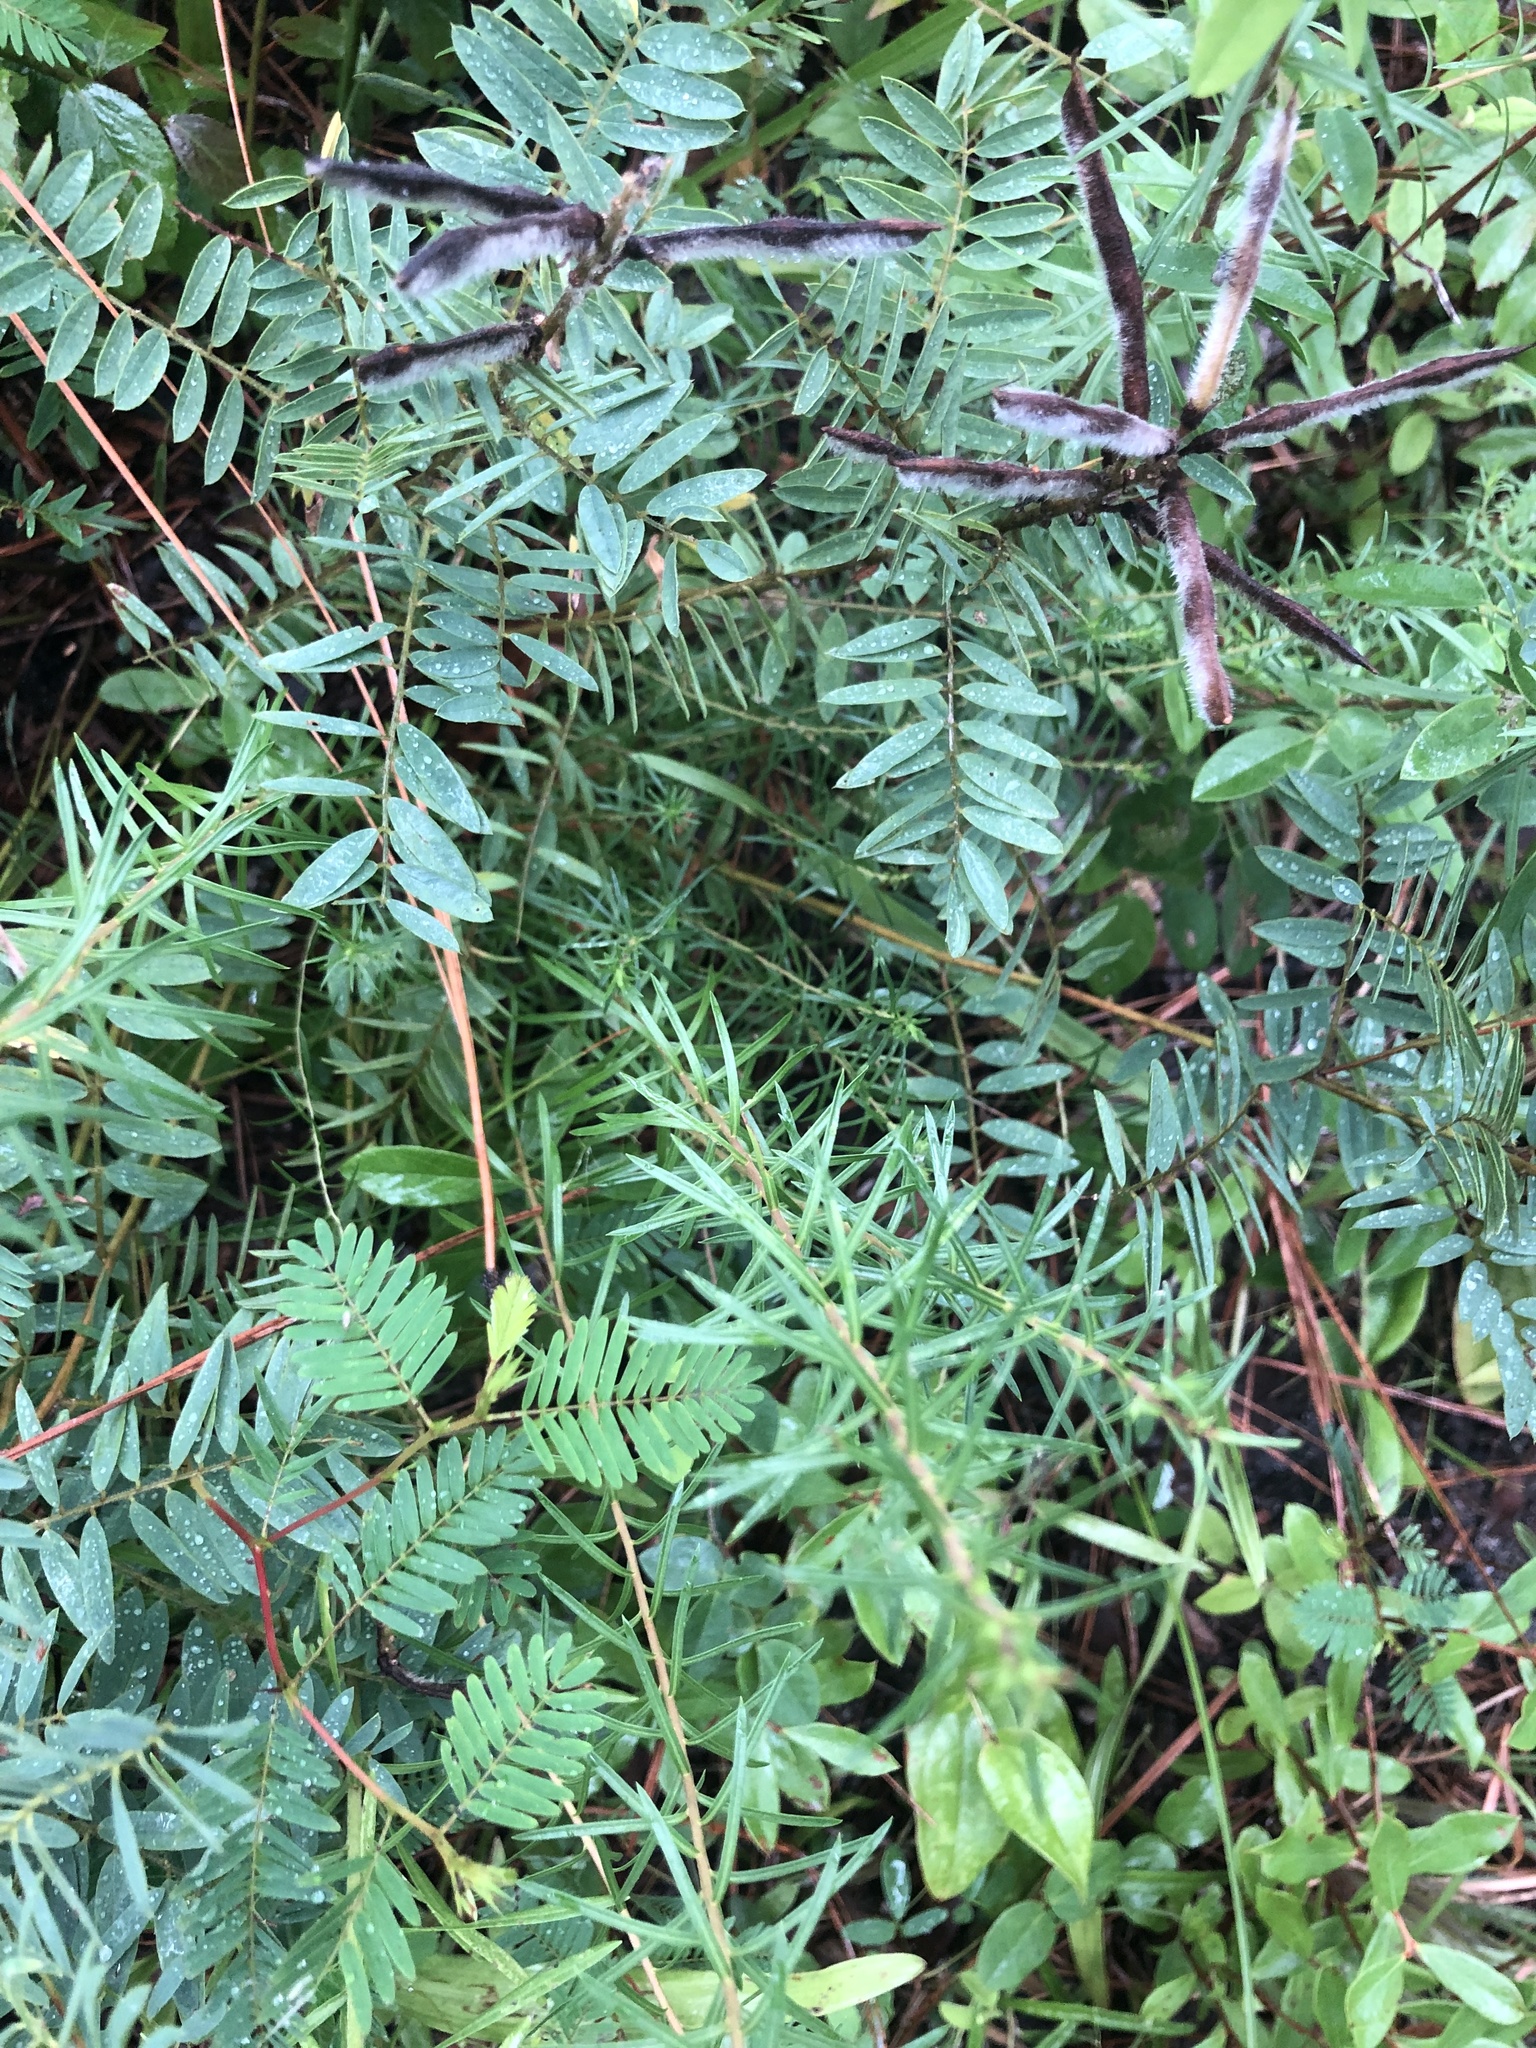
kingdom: Plantae
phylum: Tracheophyta
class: Magnoliopsida
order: Fabales
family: Fabaceae
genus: Tephrosia
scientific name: Tephrosia virginiana
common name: Rabbit-pea
